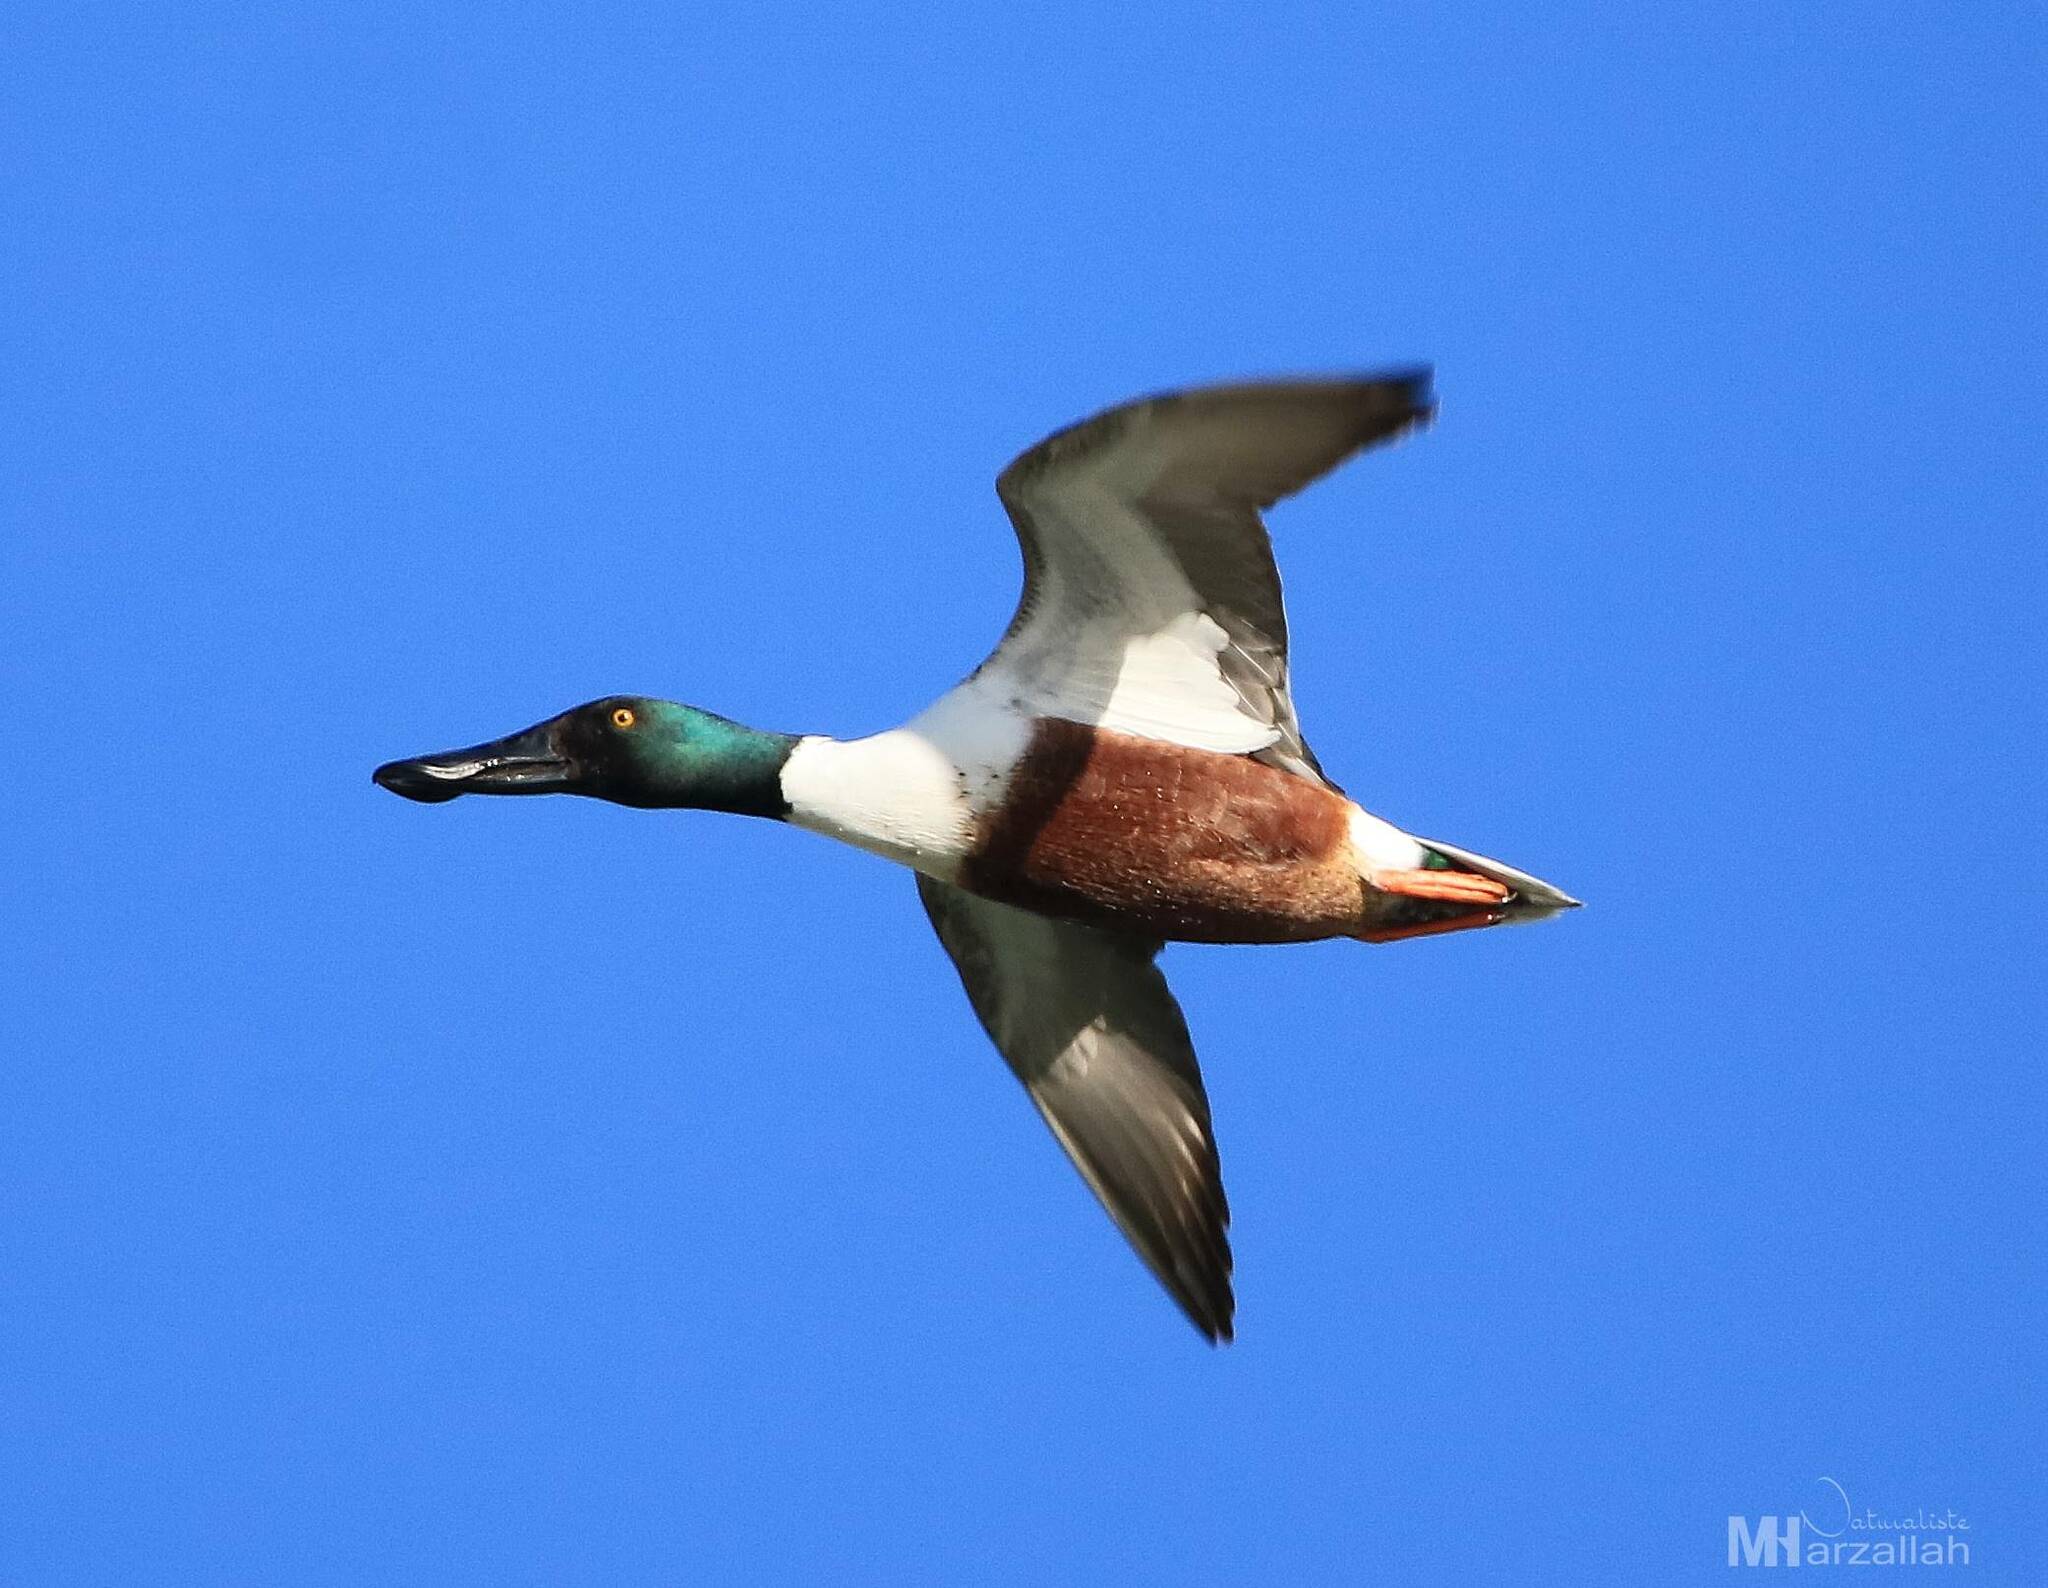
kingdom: Animalia
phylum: Chordata
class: Aves
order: Anseriformes
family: Anatidae
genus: Spatula
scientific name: Spatula clypeata
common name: Northern shoveler
